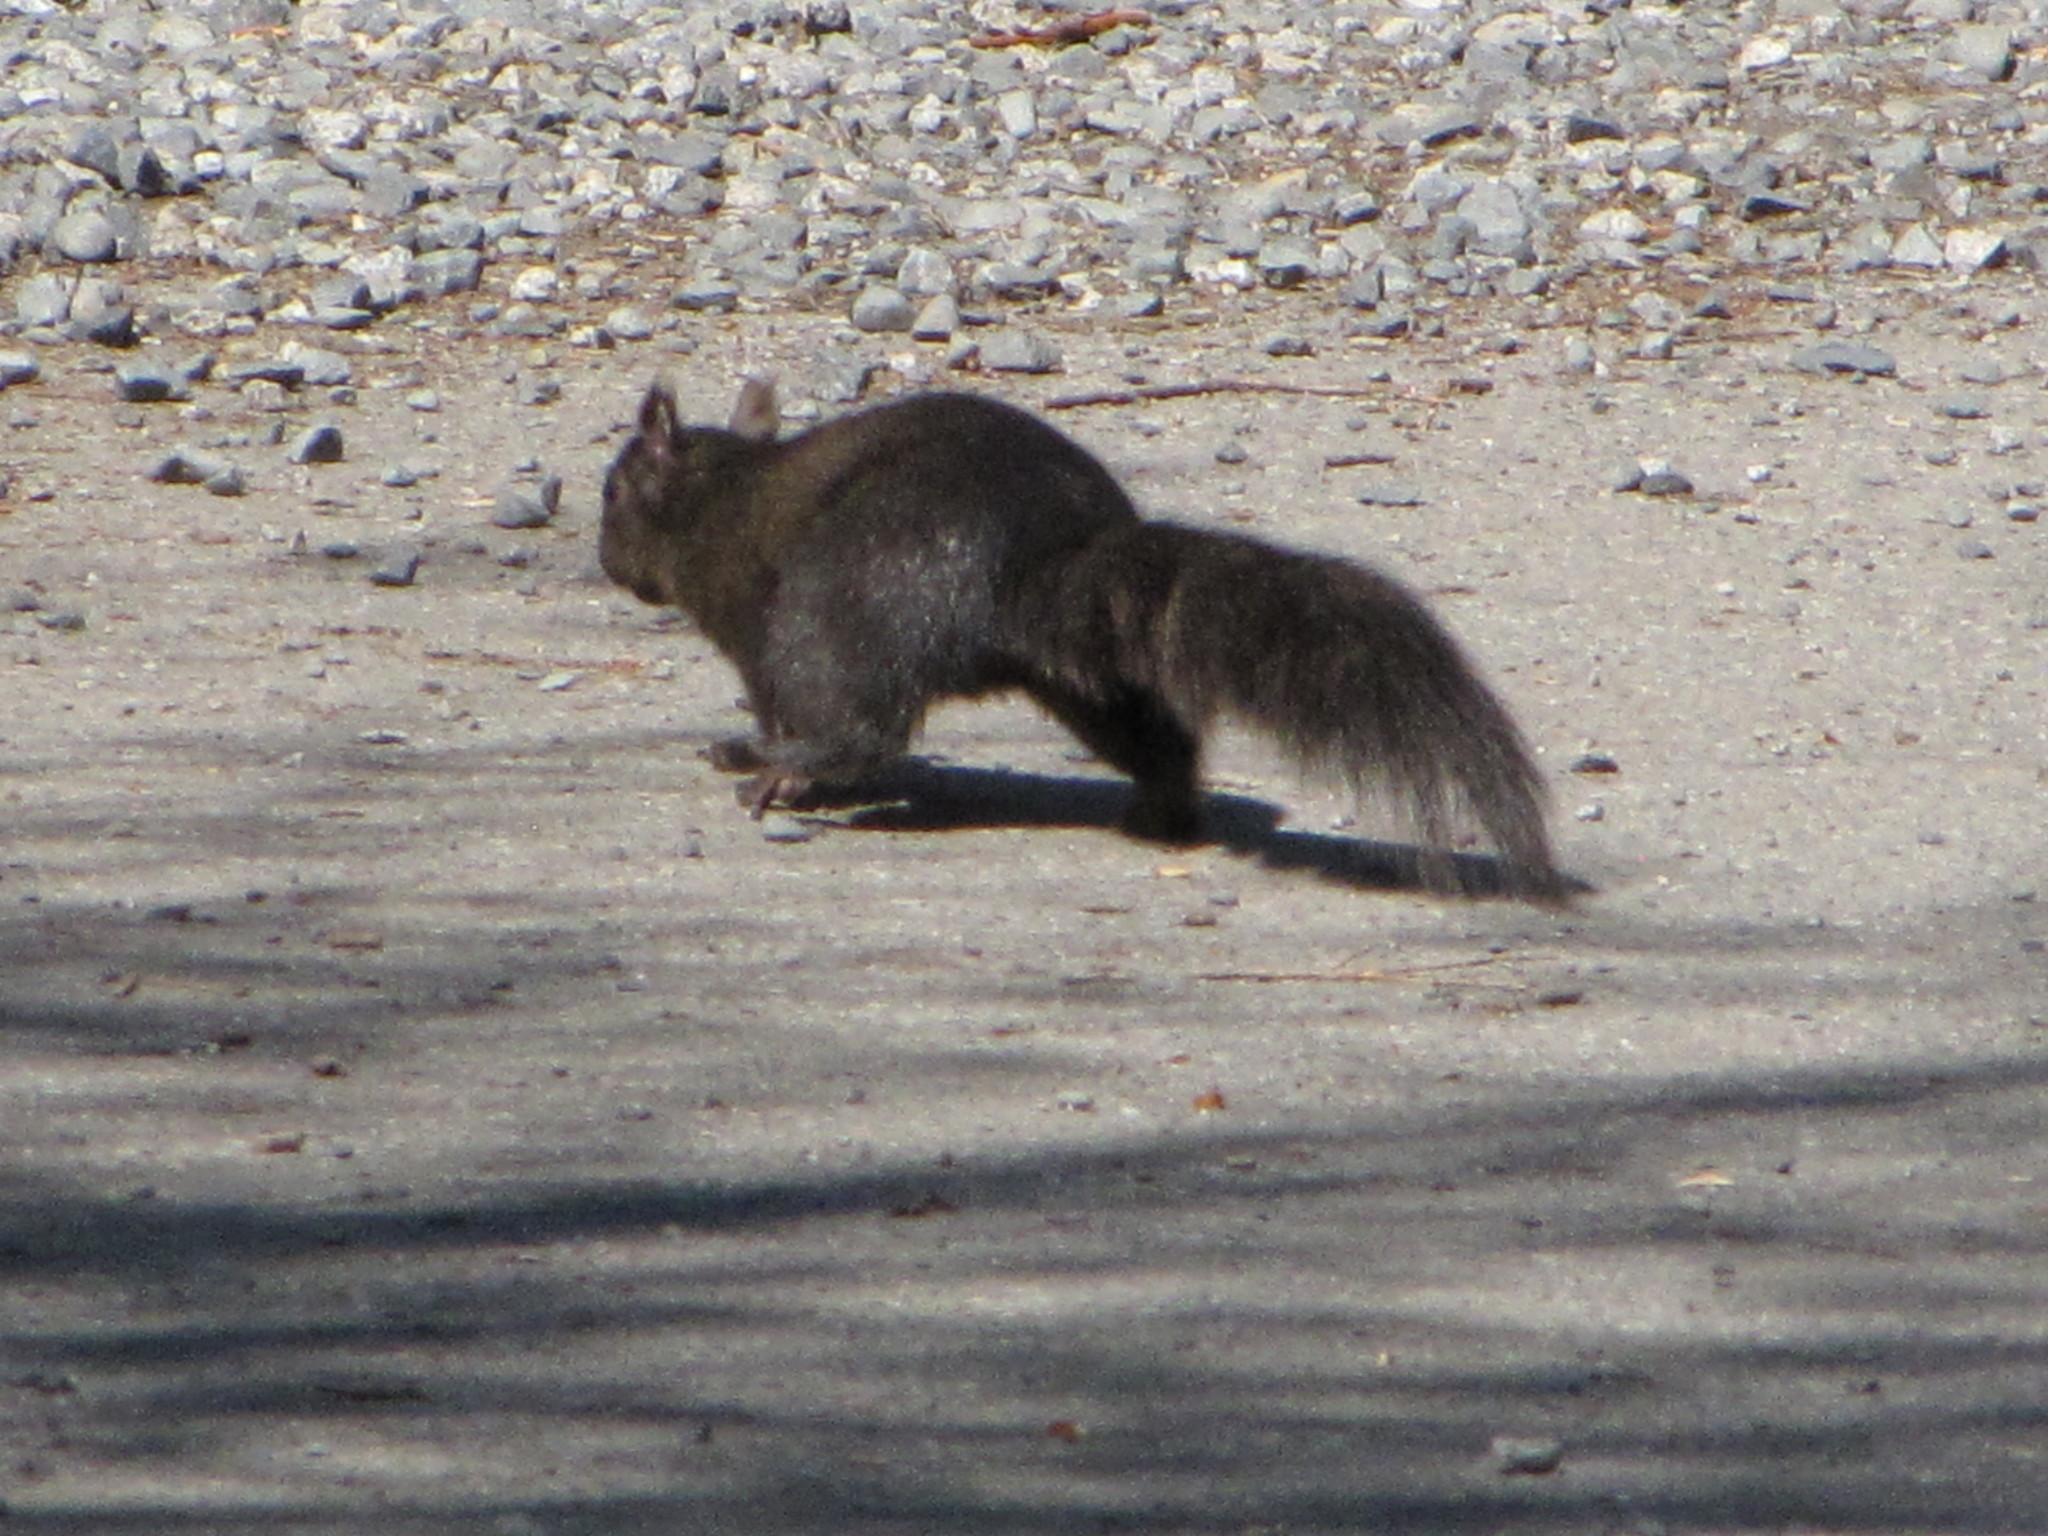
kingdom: Animalia
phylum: Chordata
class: Mammalia
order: Rodentia
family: Sciuridae
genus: Sciurus
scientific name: Sciurus carolinensis
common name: Eastern gray squirrel
